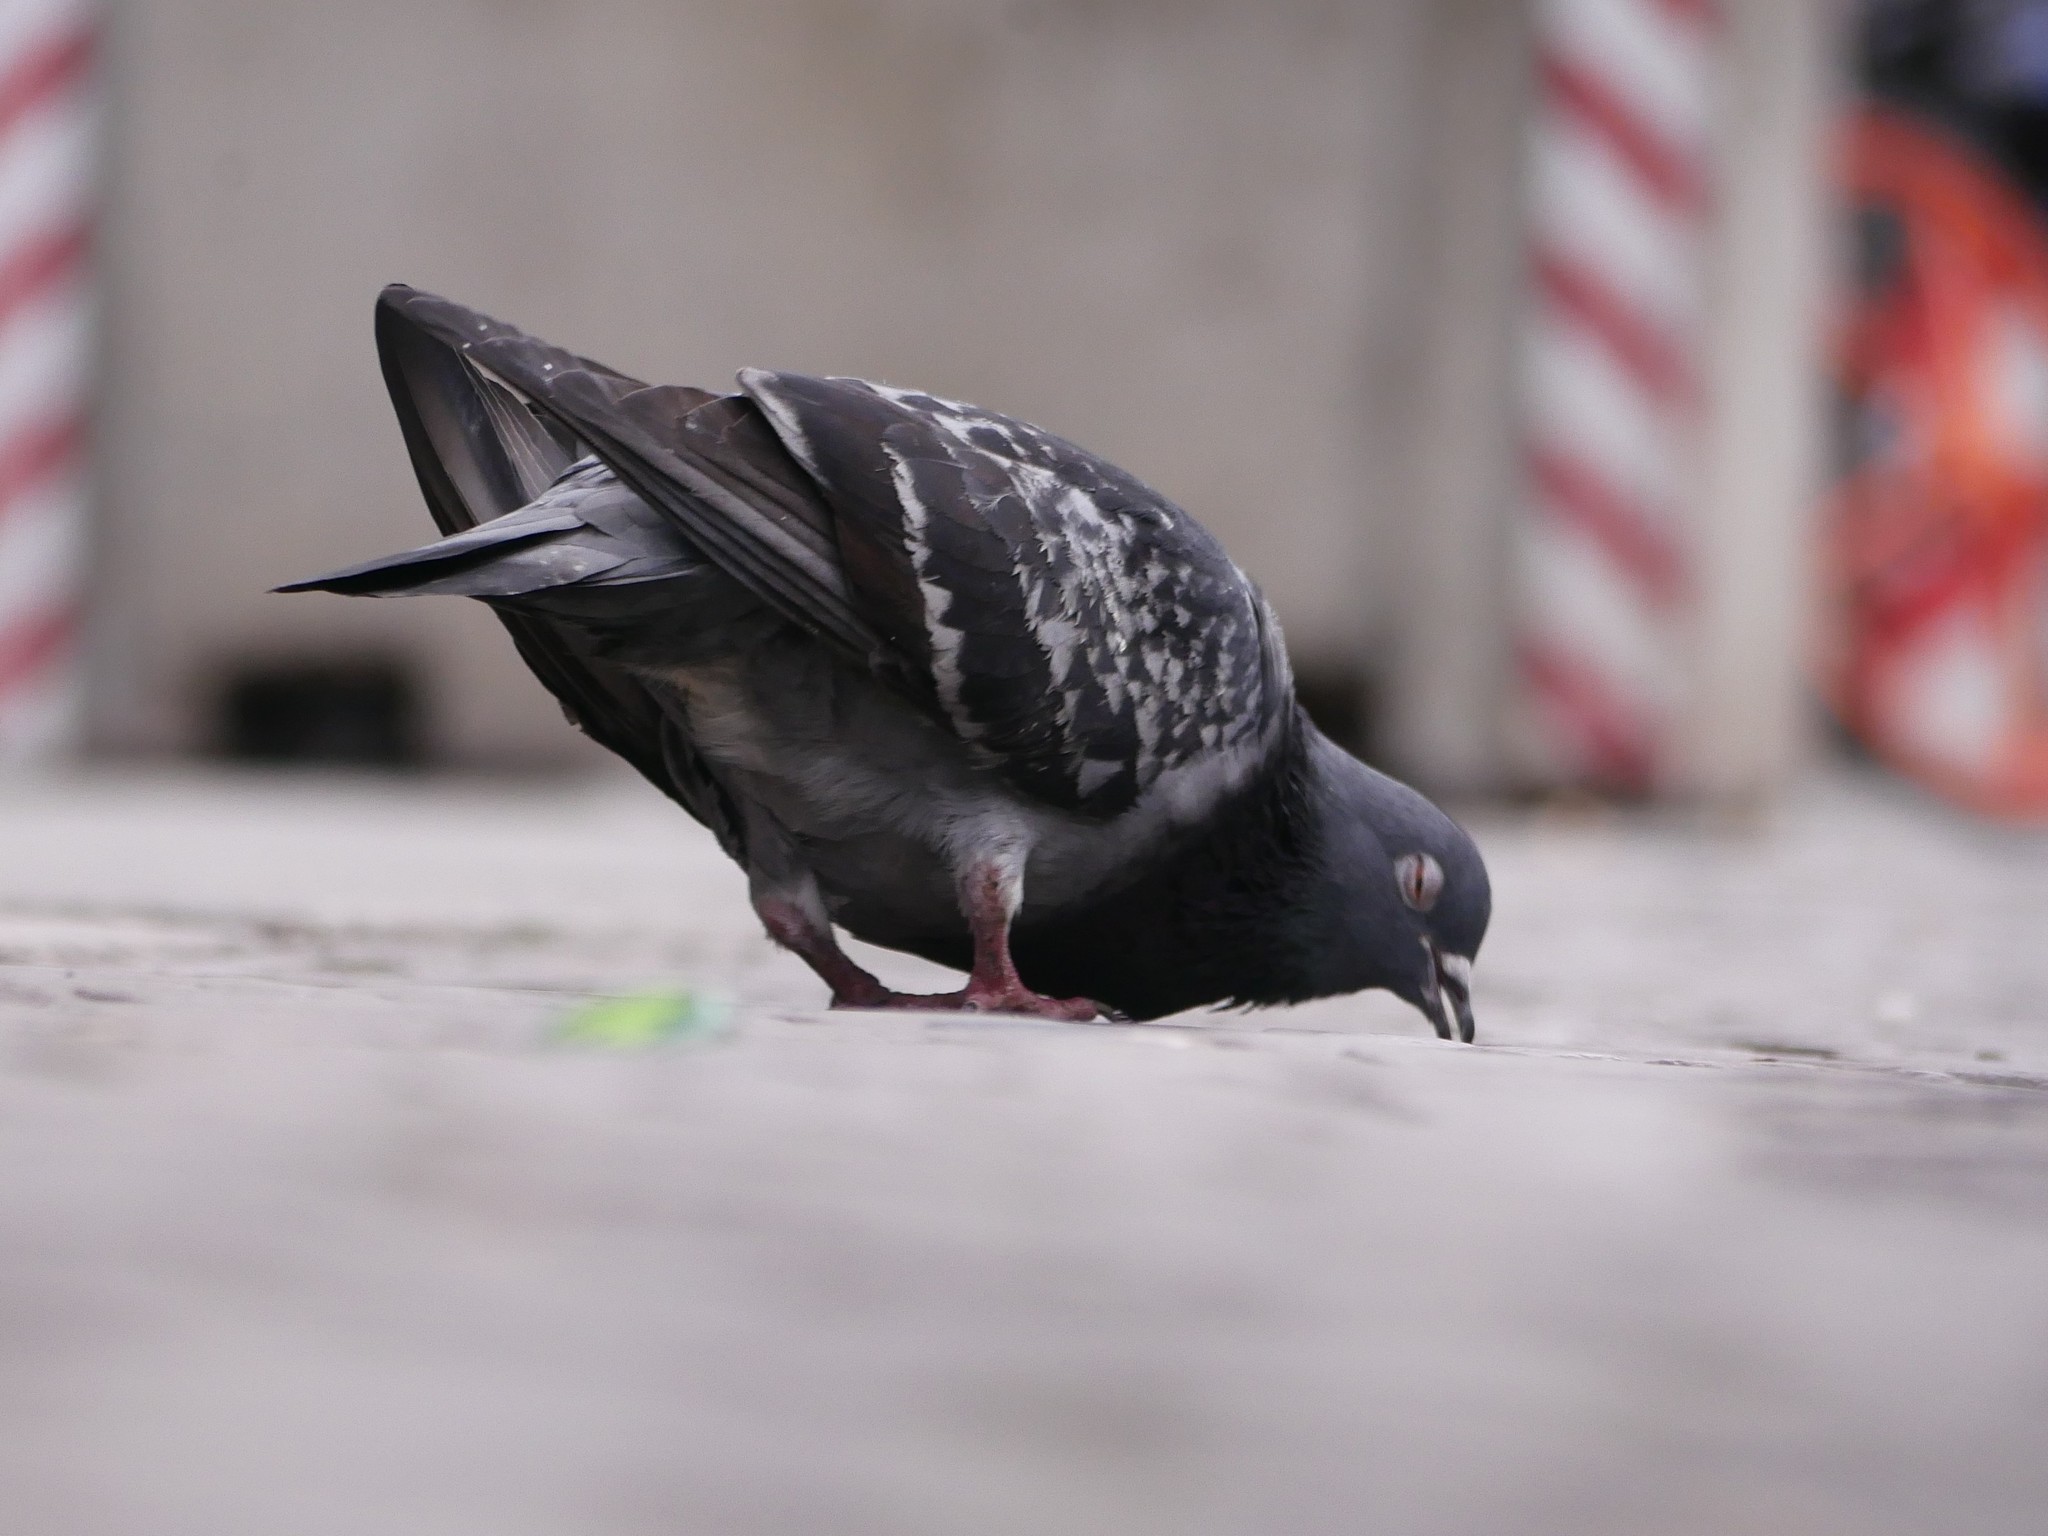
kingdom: Animalia
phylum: Chordata
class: Aves
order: Columbiformes
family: Columbidae
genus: Columba
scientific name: Columba livia
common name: Rock pigeon
